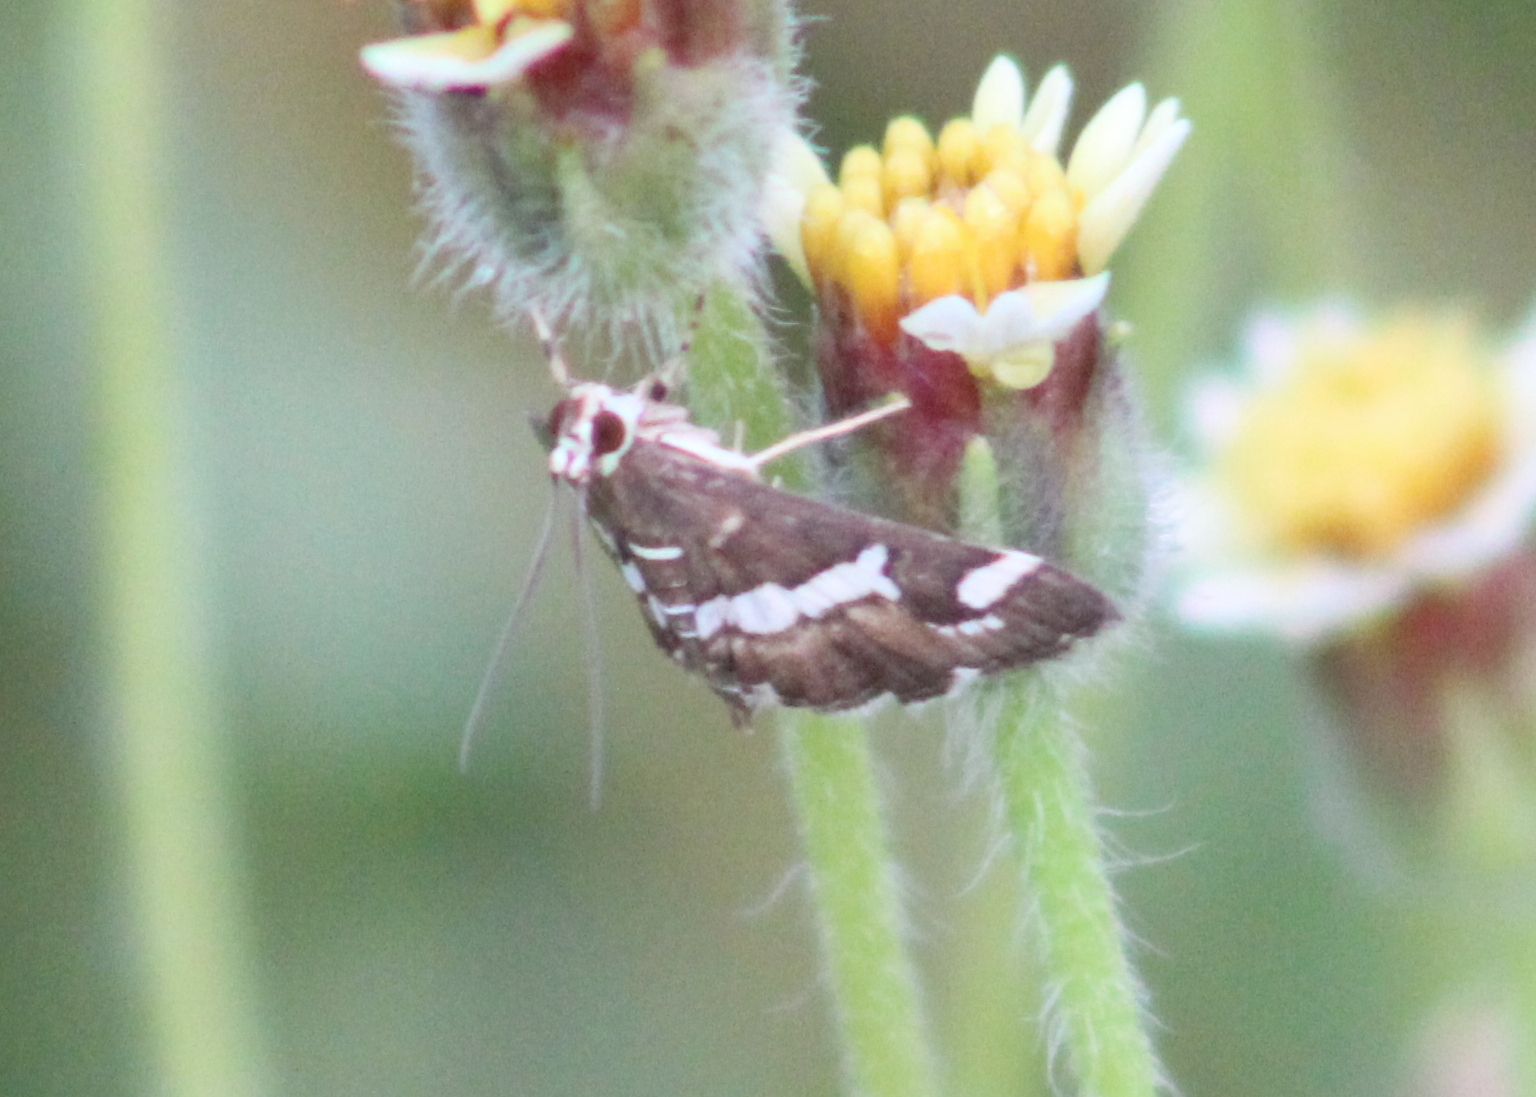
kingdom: Animalia
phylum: Arthropoda
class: Insecta
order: Lepidoptera
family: Crambidae
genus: Spoladea
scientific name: Spoladea recurvalis
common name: Beet webworm moth
